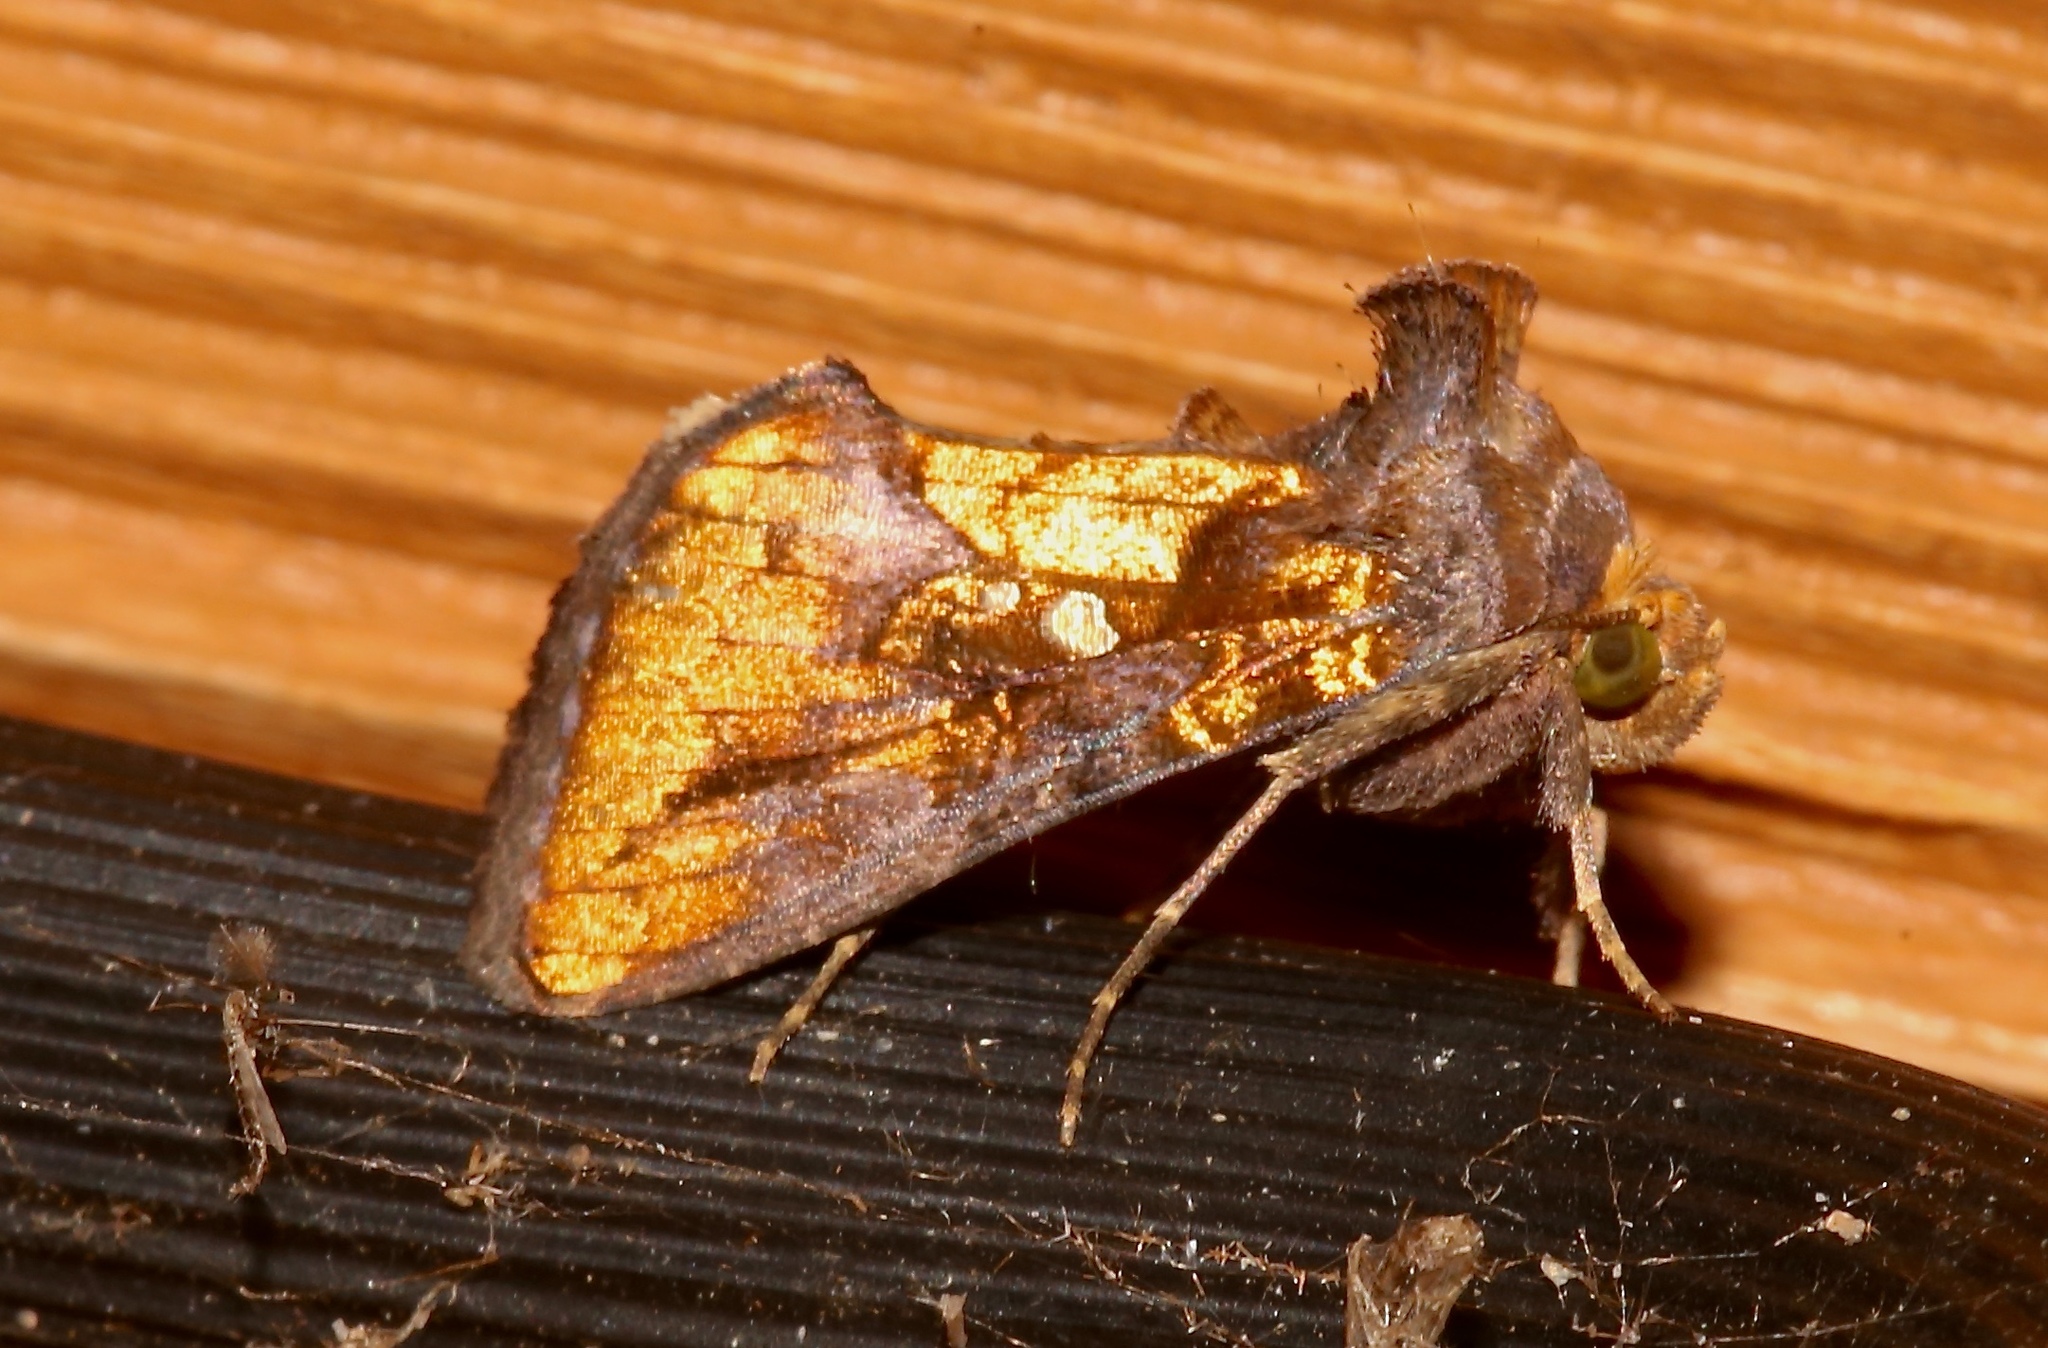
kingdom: Animalia
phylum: Arthropoda
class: Insecta
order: Lepidoptera
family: Noctuidae
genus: Argyrogramma
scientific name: Argyrogramma verruca
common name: Golden looper moth
